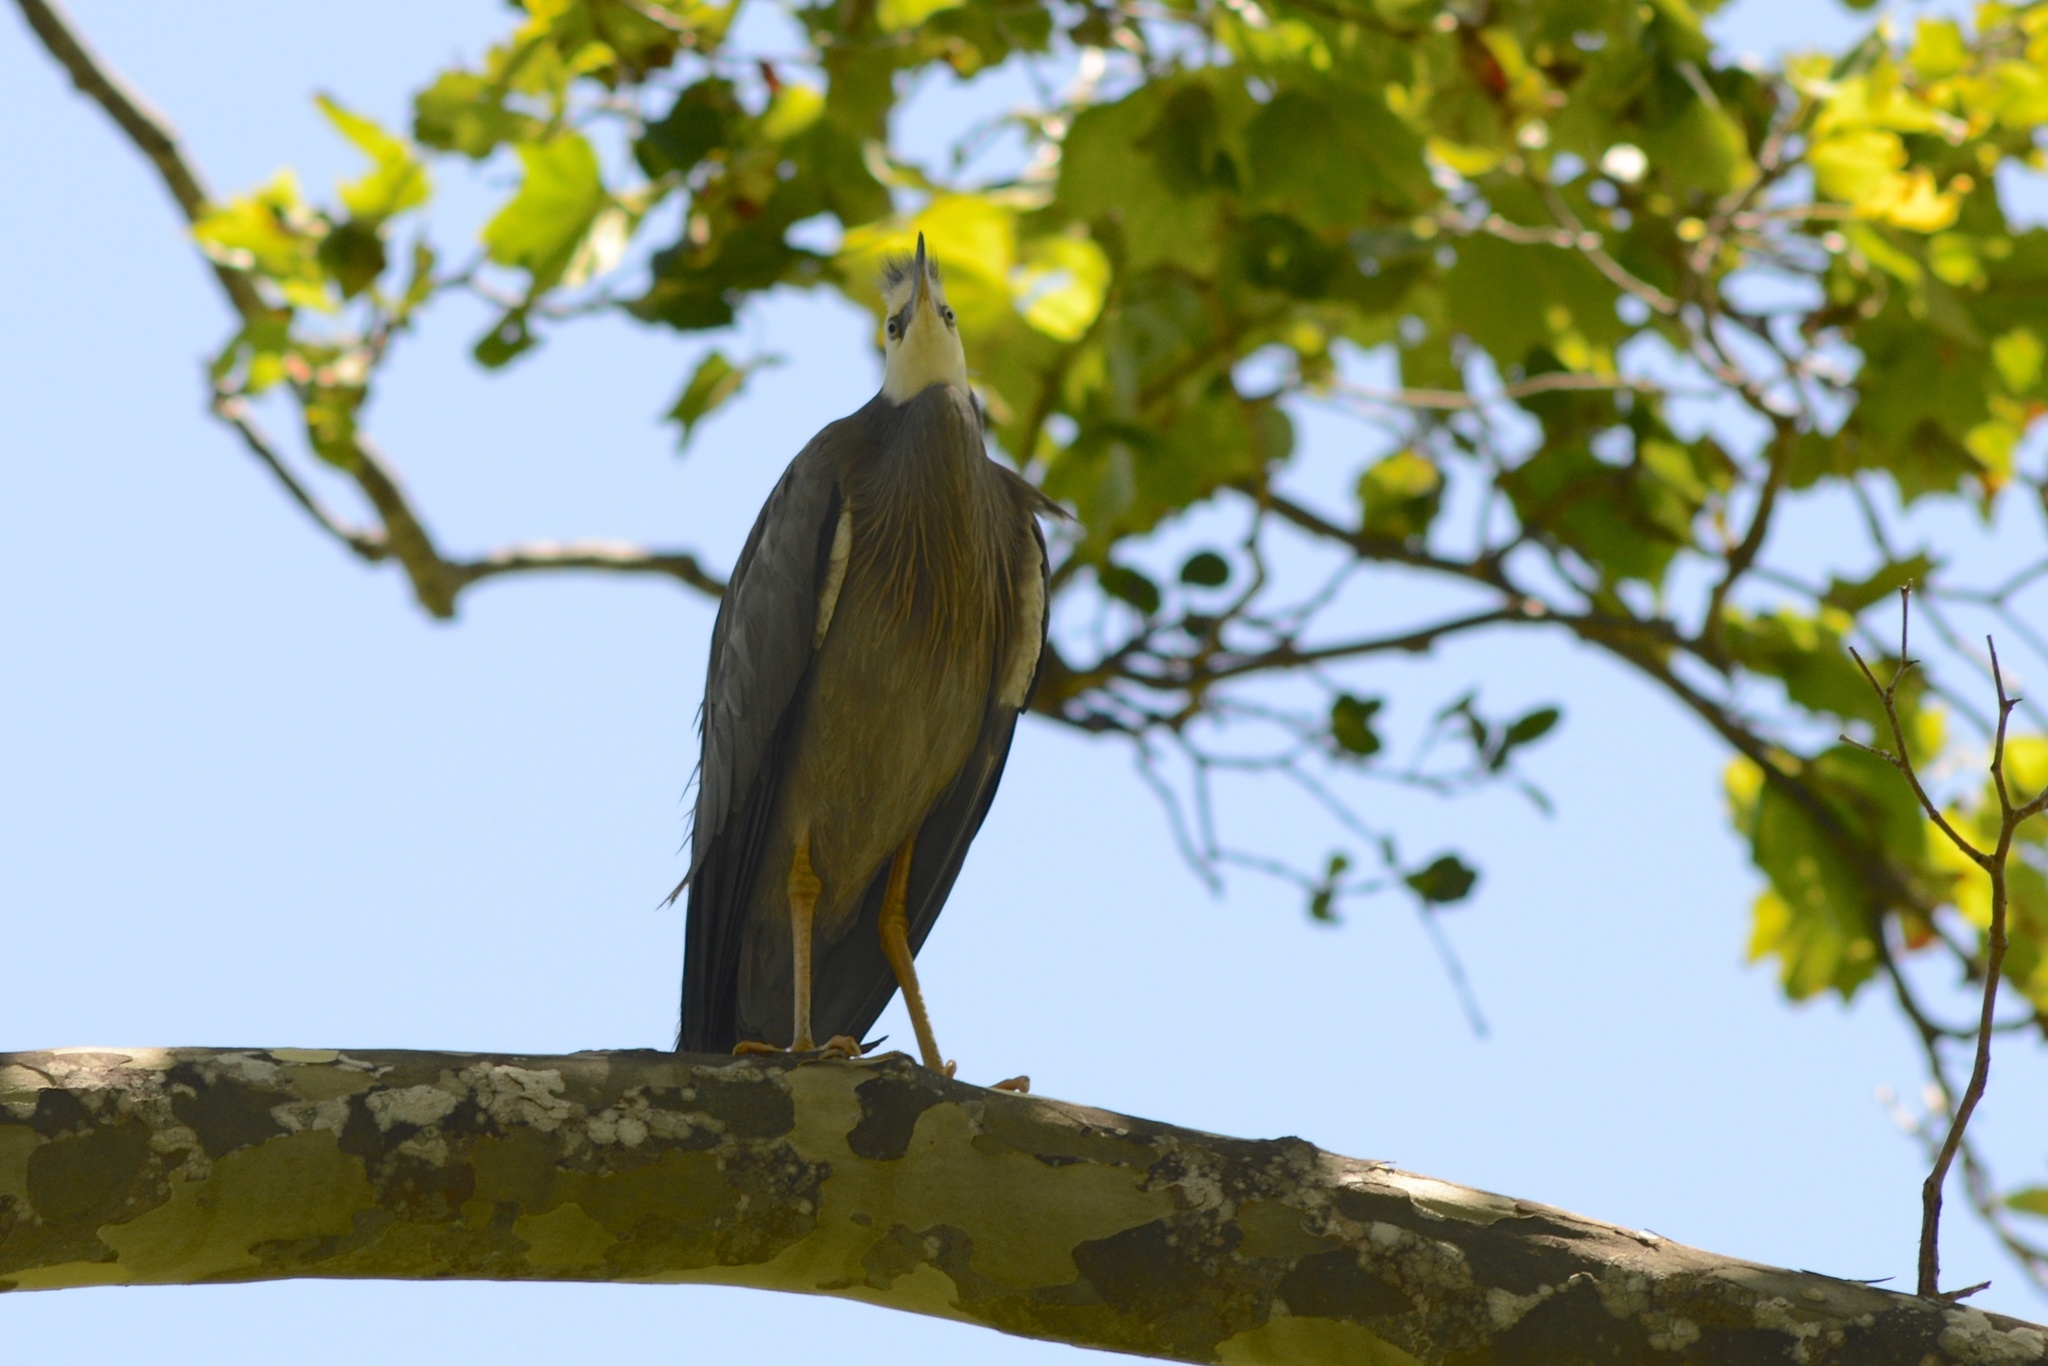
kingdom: Animalia
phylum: Chordata
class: Aves
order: Pelecaniformes
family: Ardeidae
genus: Egretta
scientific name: Egretta novaehollandiae
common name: White-faced heron
